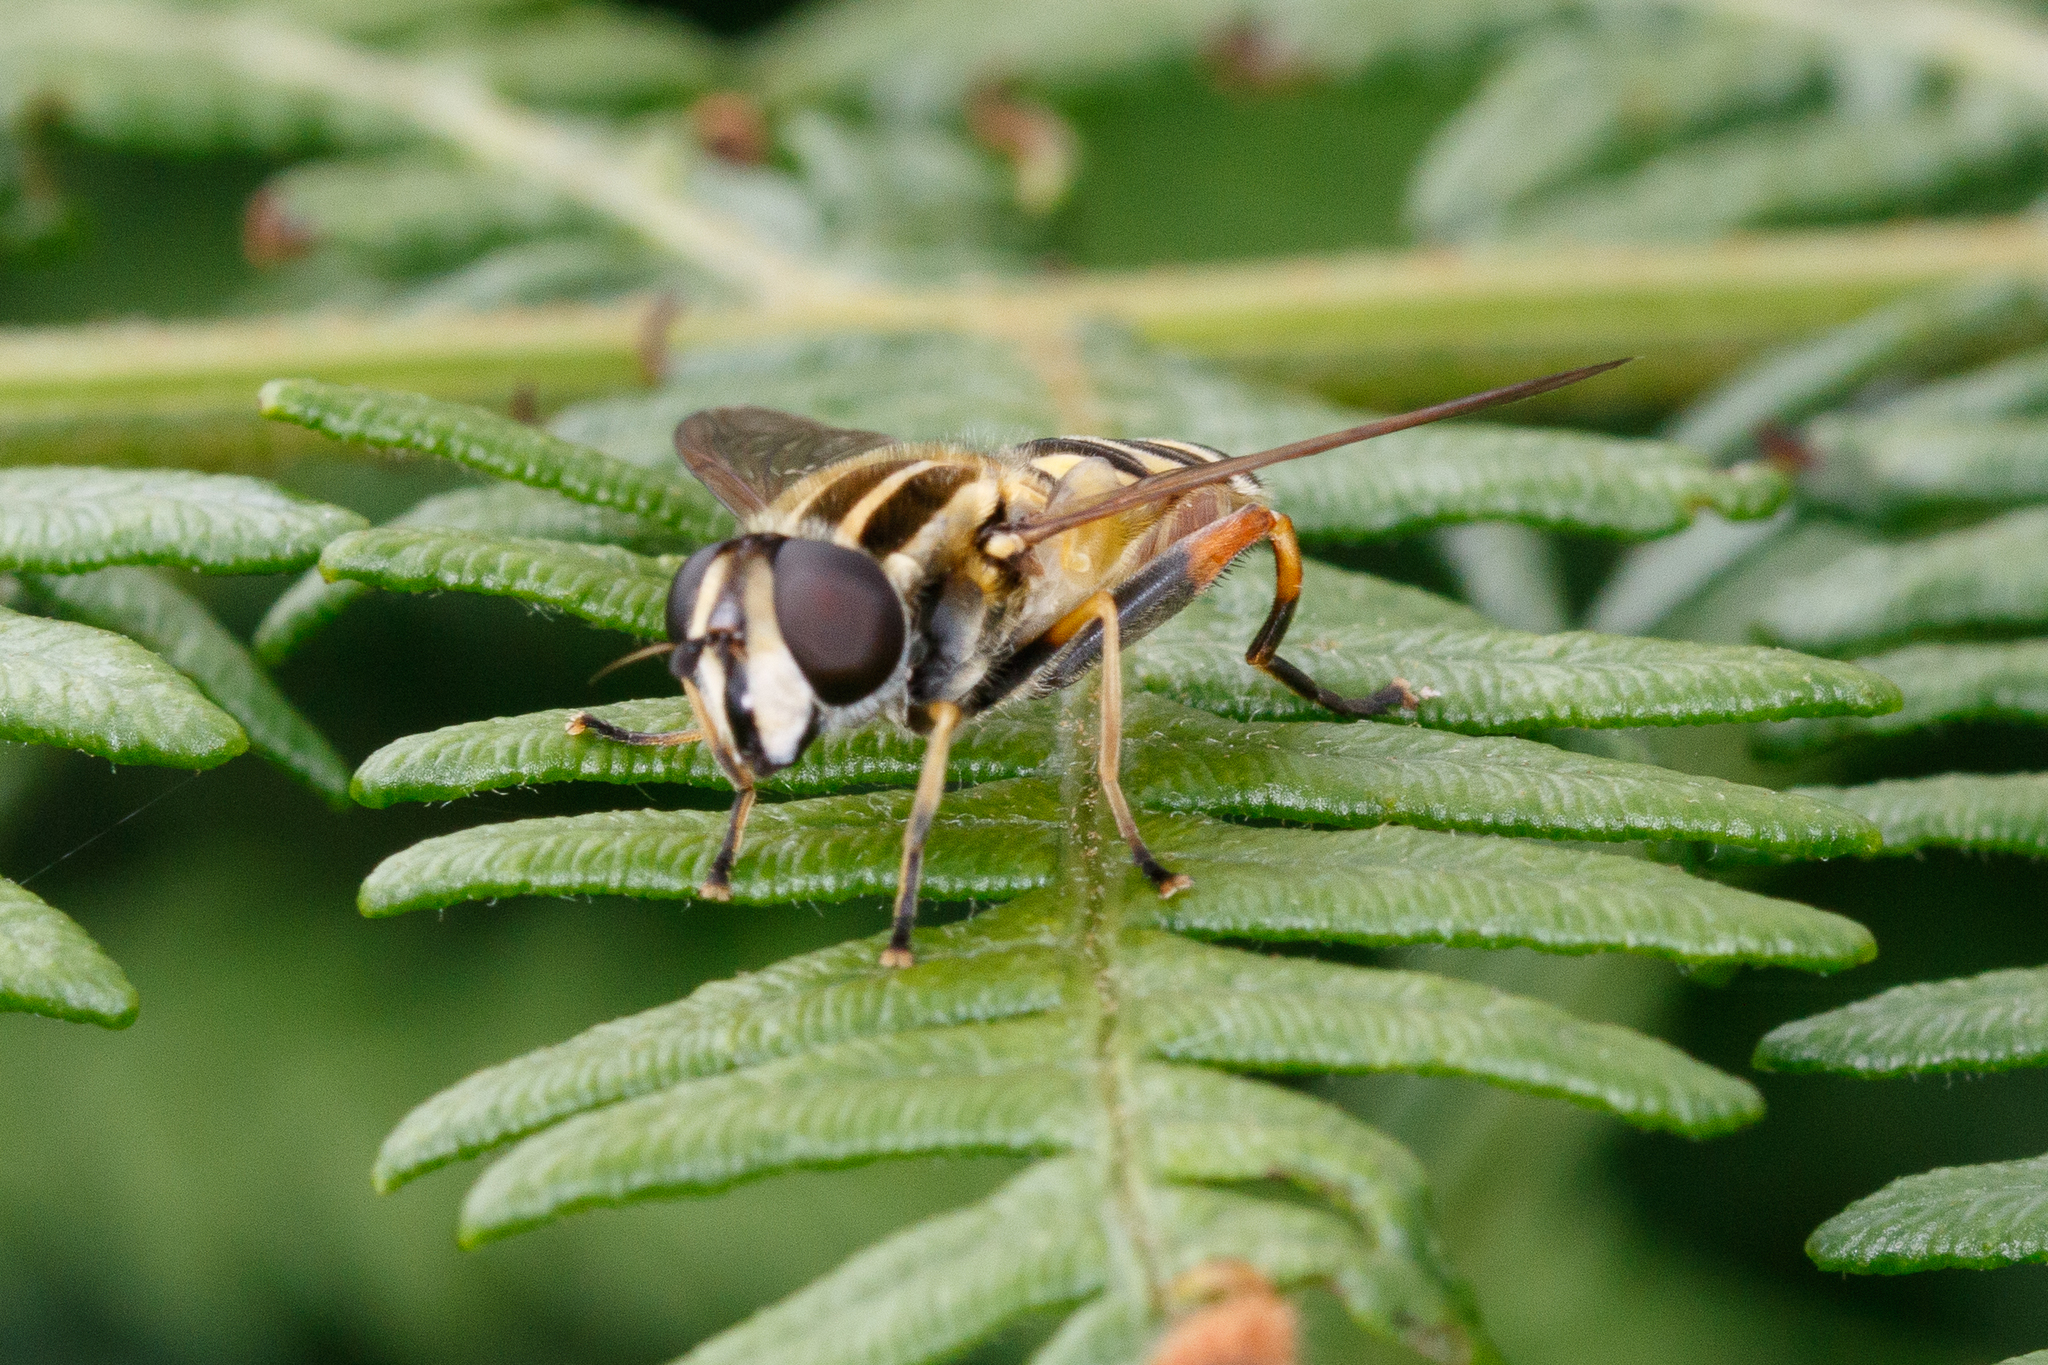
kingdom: Animalia
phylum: Arthropoda
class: Insecta
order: Diptera
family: Syrphidae
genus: Helophilus
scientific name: Helophilus pendulus
